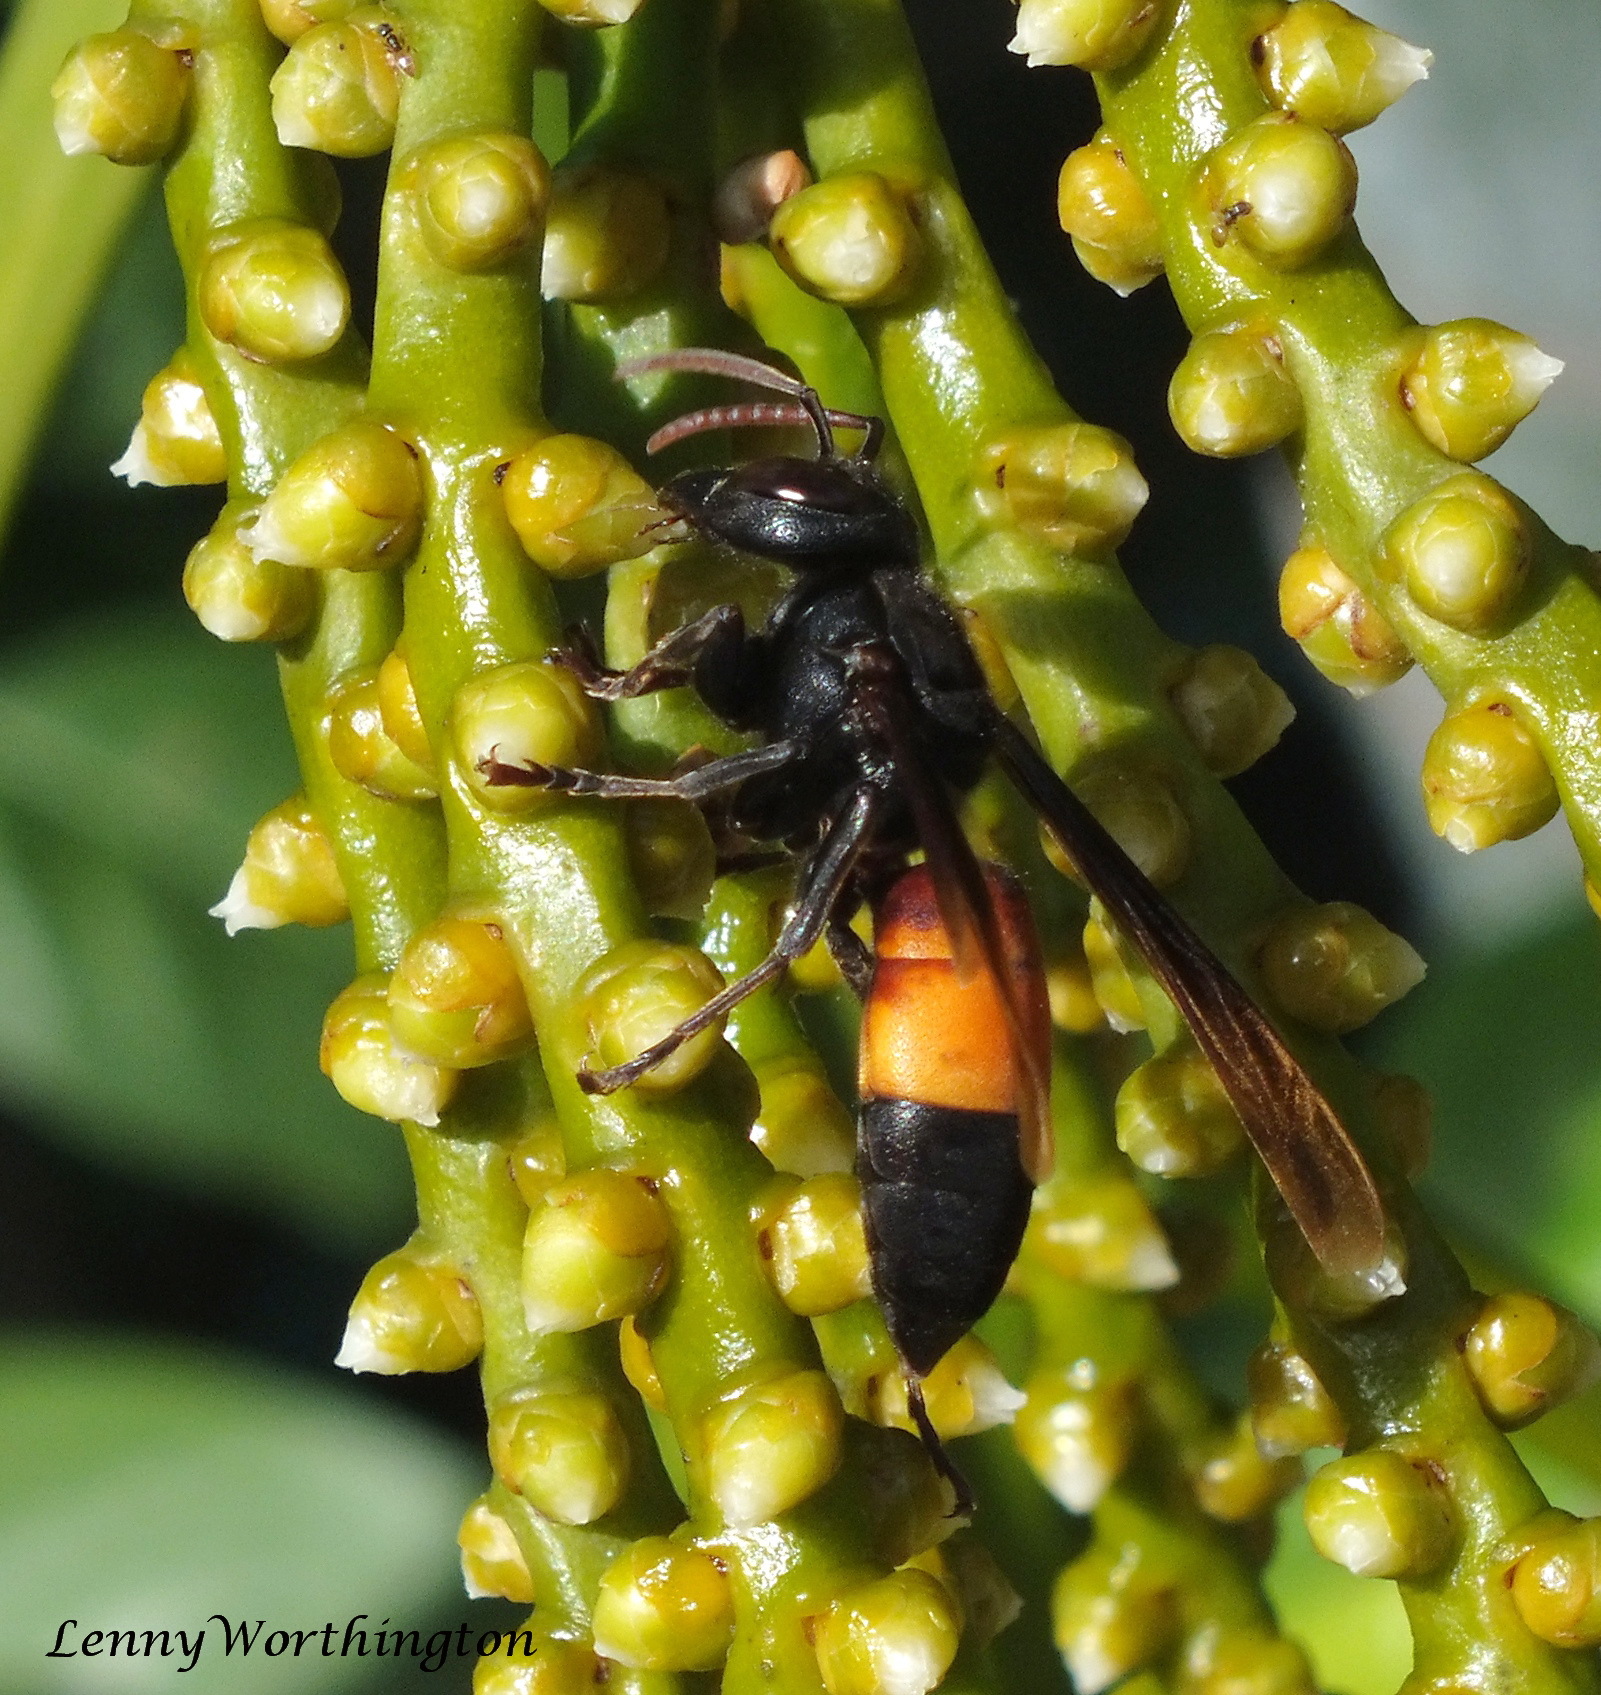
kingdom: Animalia
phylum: Arthropoda
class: Insecta
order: Hymenoptera
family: Vespidae
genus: Vespa
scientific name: Vespa affinis
